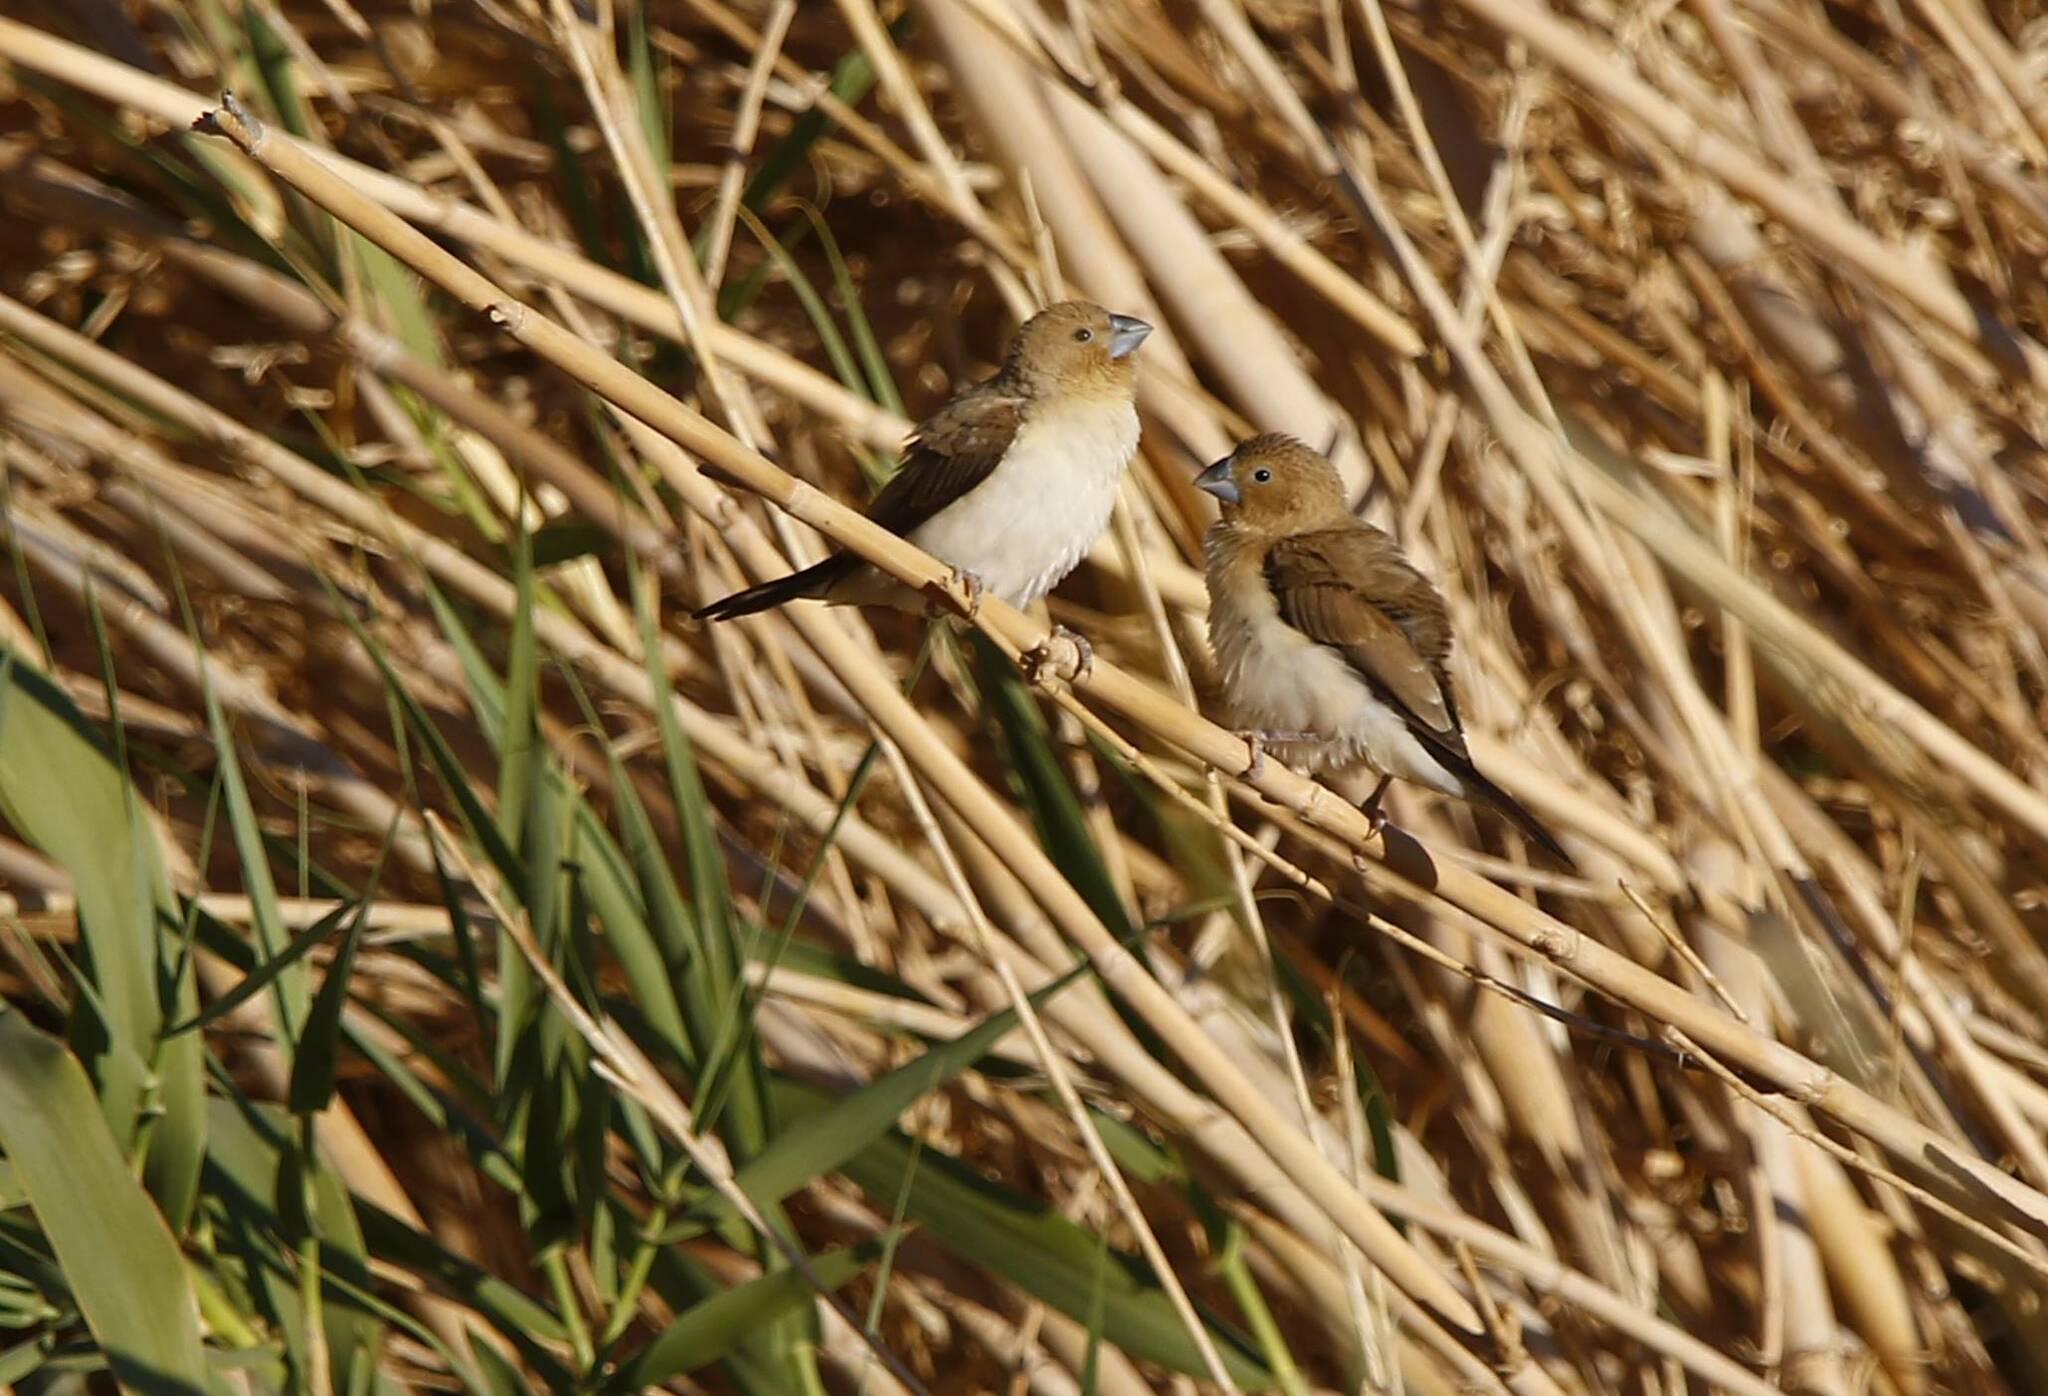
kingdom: Animalia
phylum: Chordata
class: Aves
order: Passeriformes
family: Estrildidae
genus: Euodice
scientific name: Euodice cantans
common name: African silverbill
